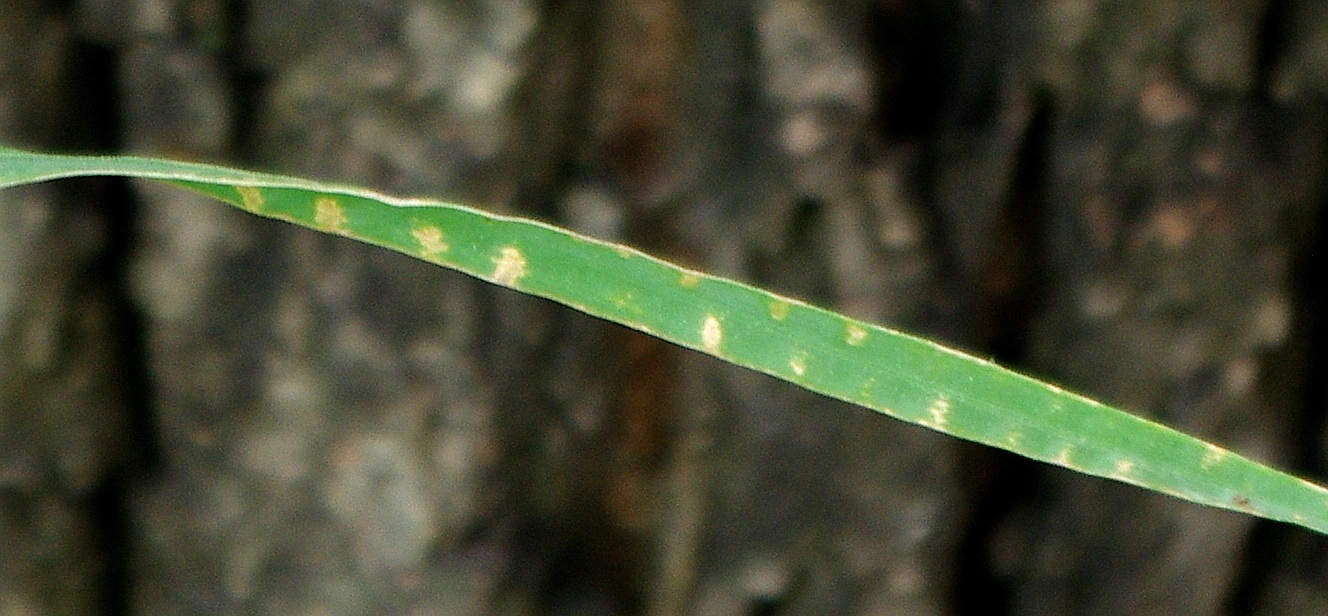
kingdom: Plantae
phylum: Tracheophyta
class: Liliopsida
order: Poales
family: Poaceae
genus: Dactylis
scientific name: Dactylis glomerata
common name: Orchardgrass
